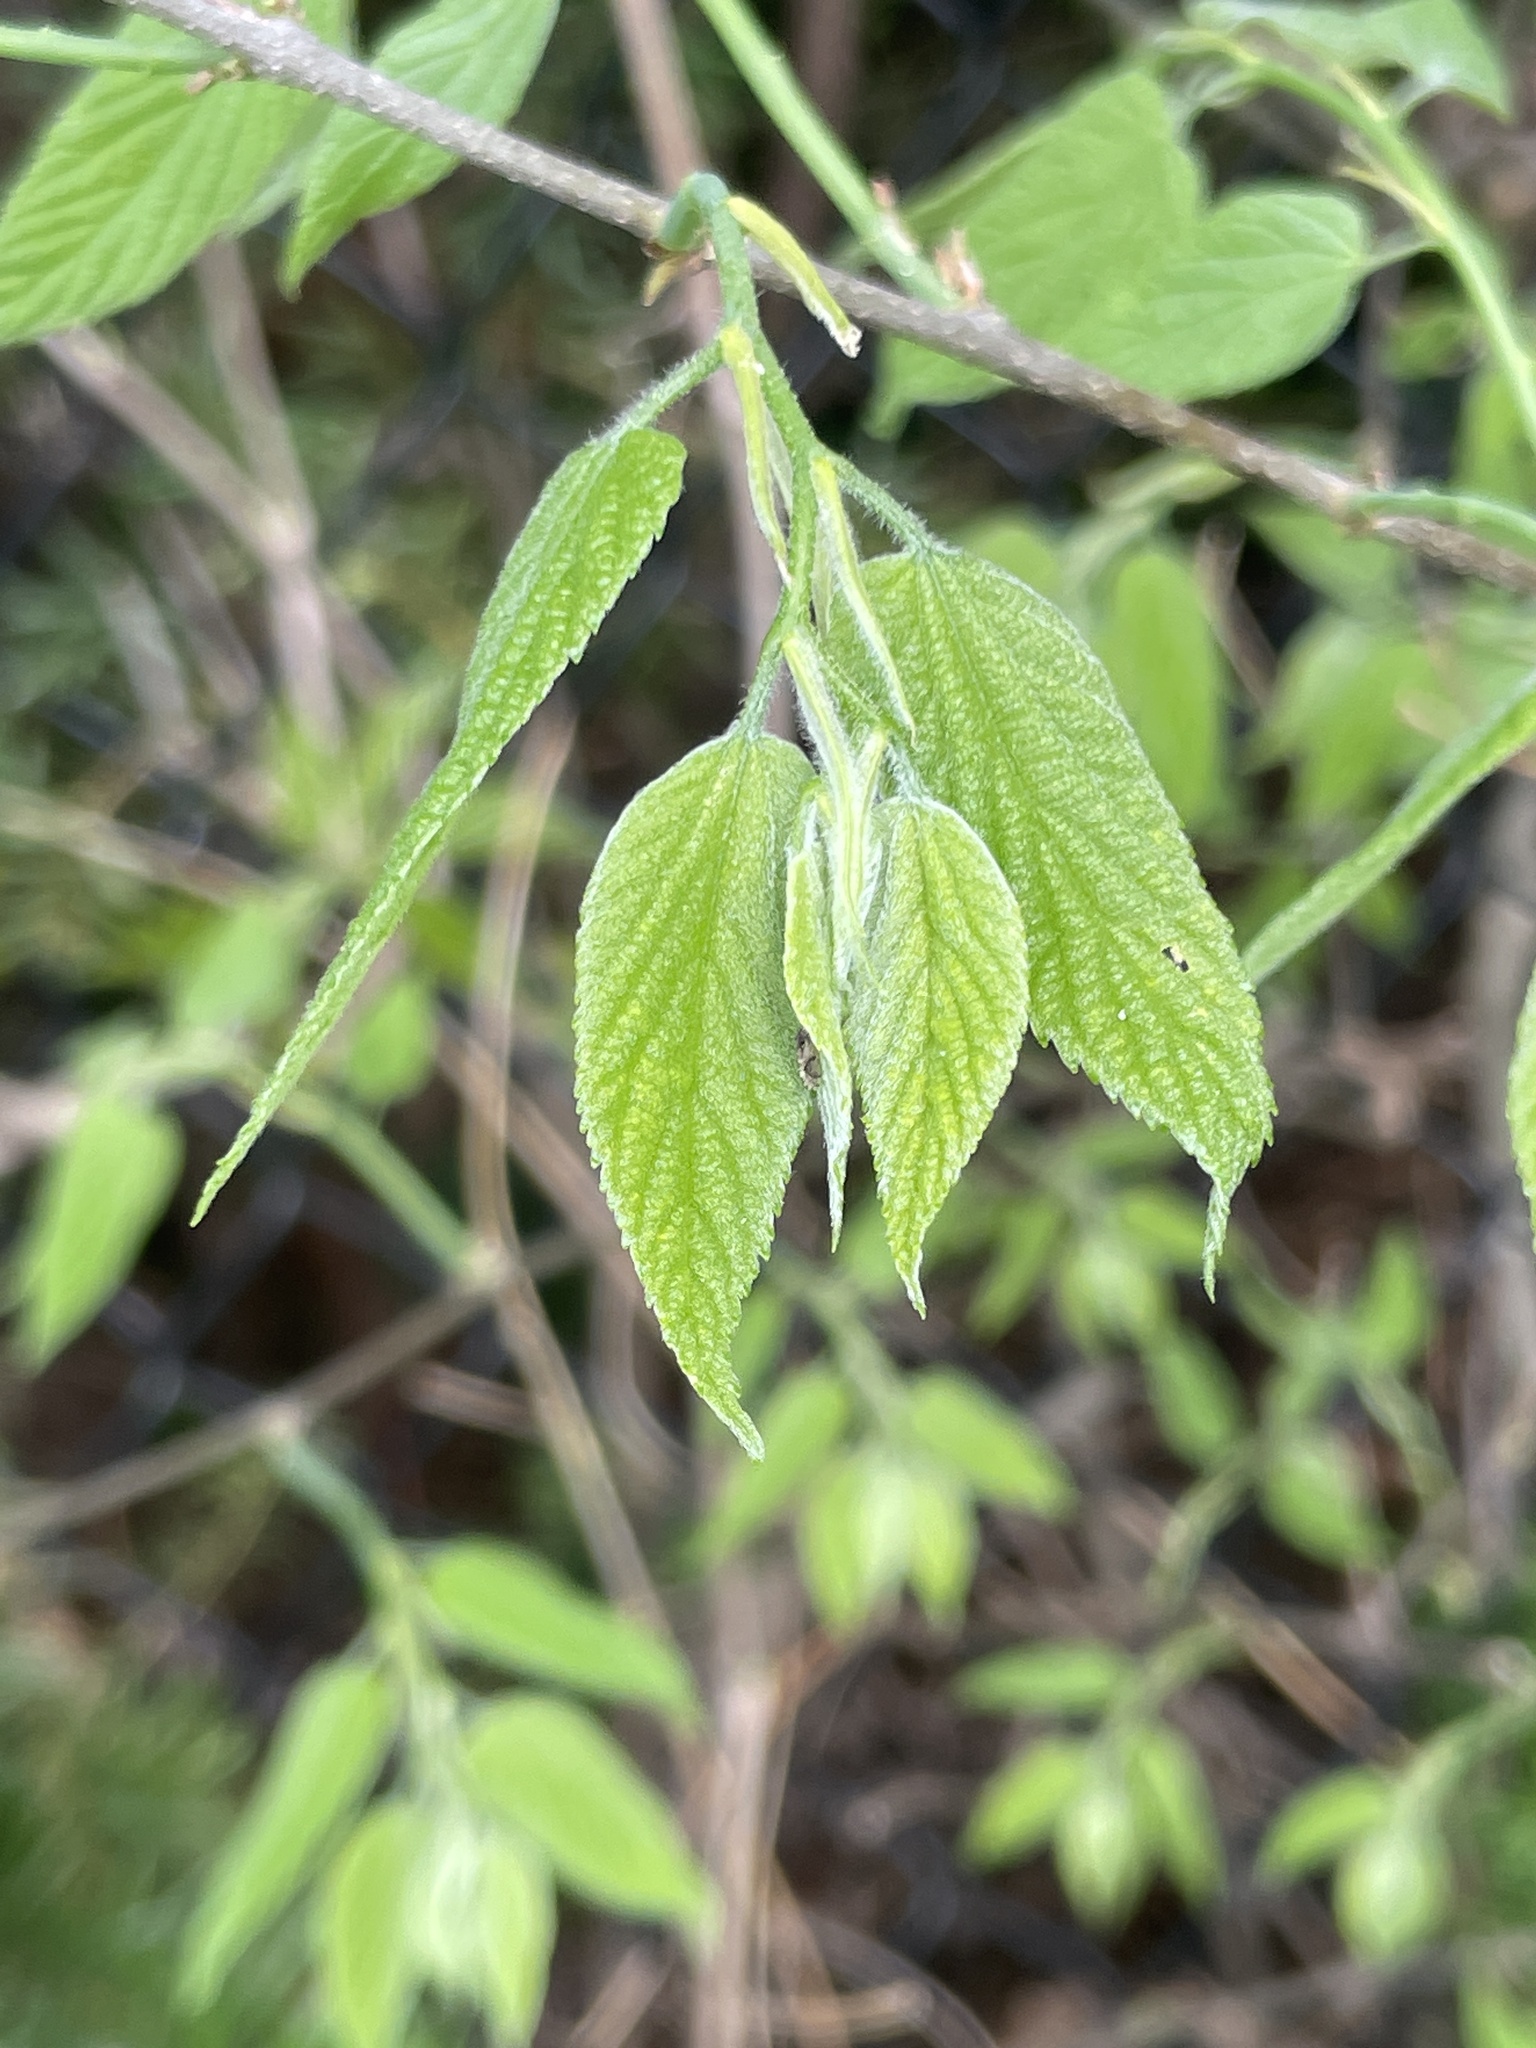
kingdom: Plantae
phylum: Tracheophyta
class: Magnoliopsida
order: Rosales
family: Cannabaceae
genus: Celtis
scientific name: Celtis occidentalis
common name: Common hackberry
